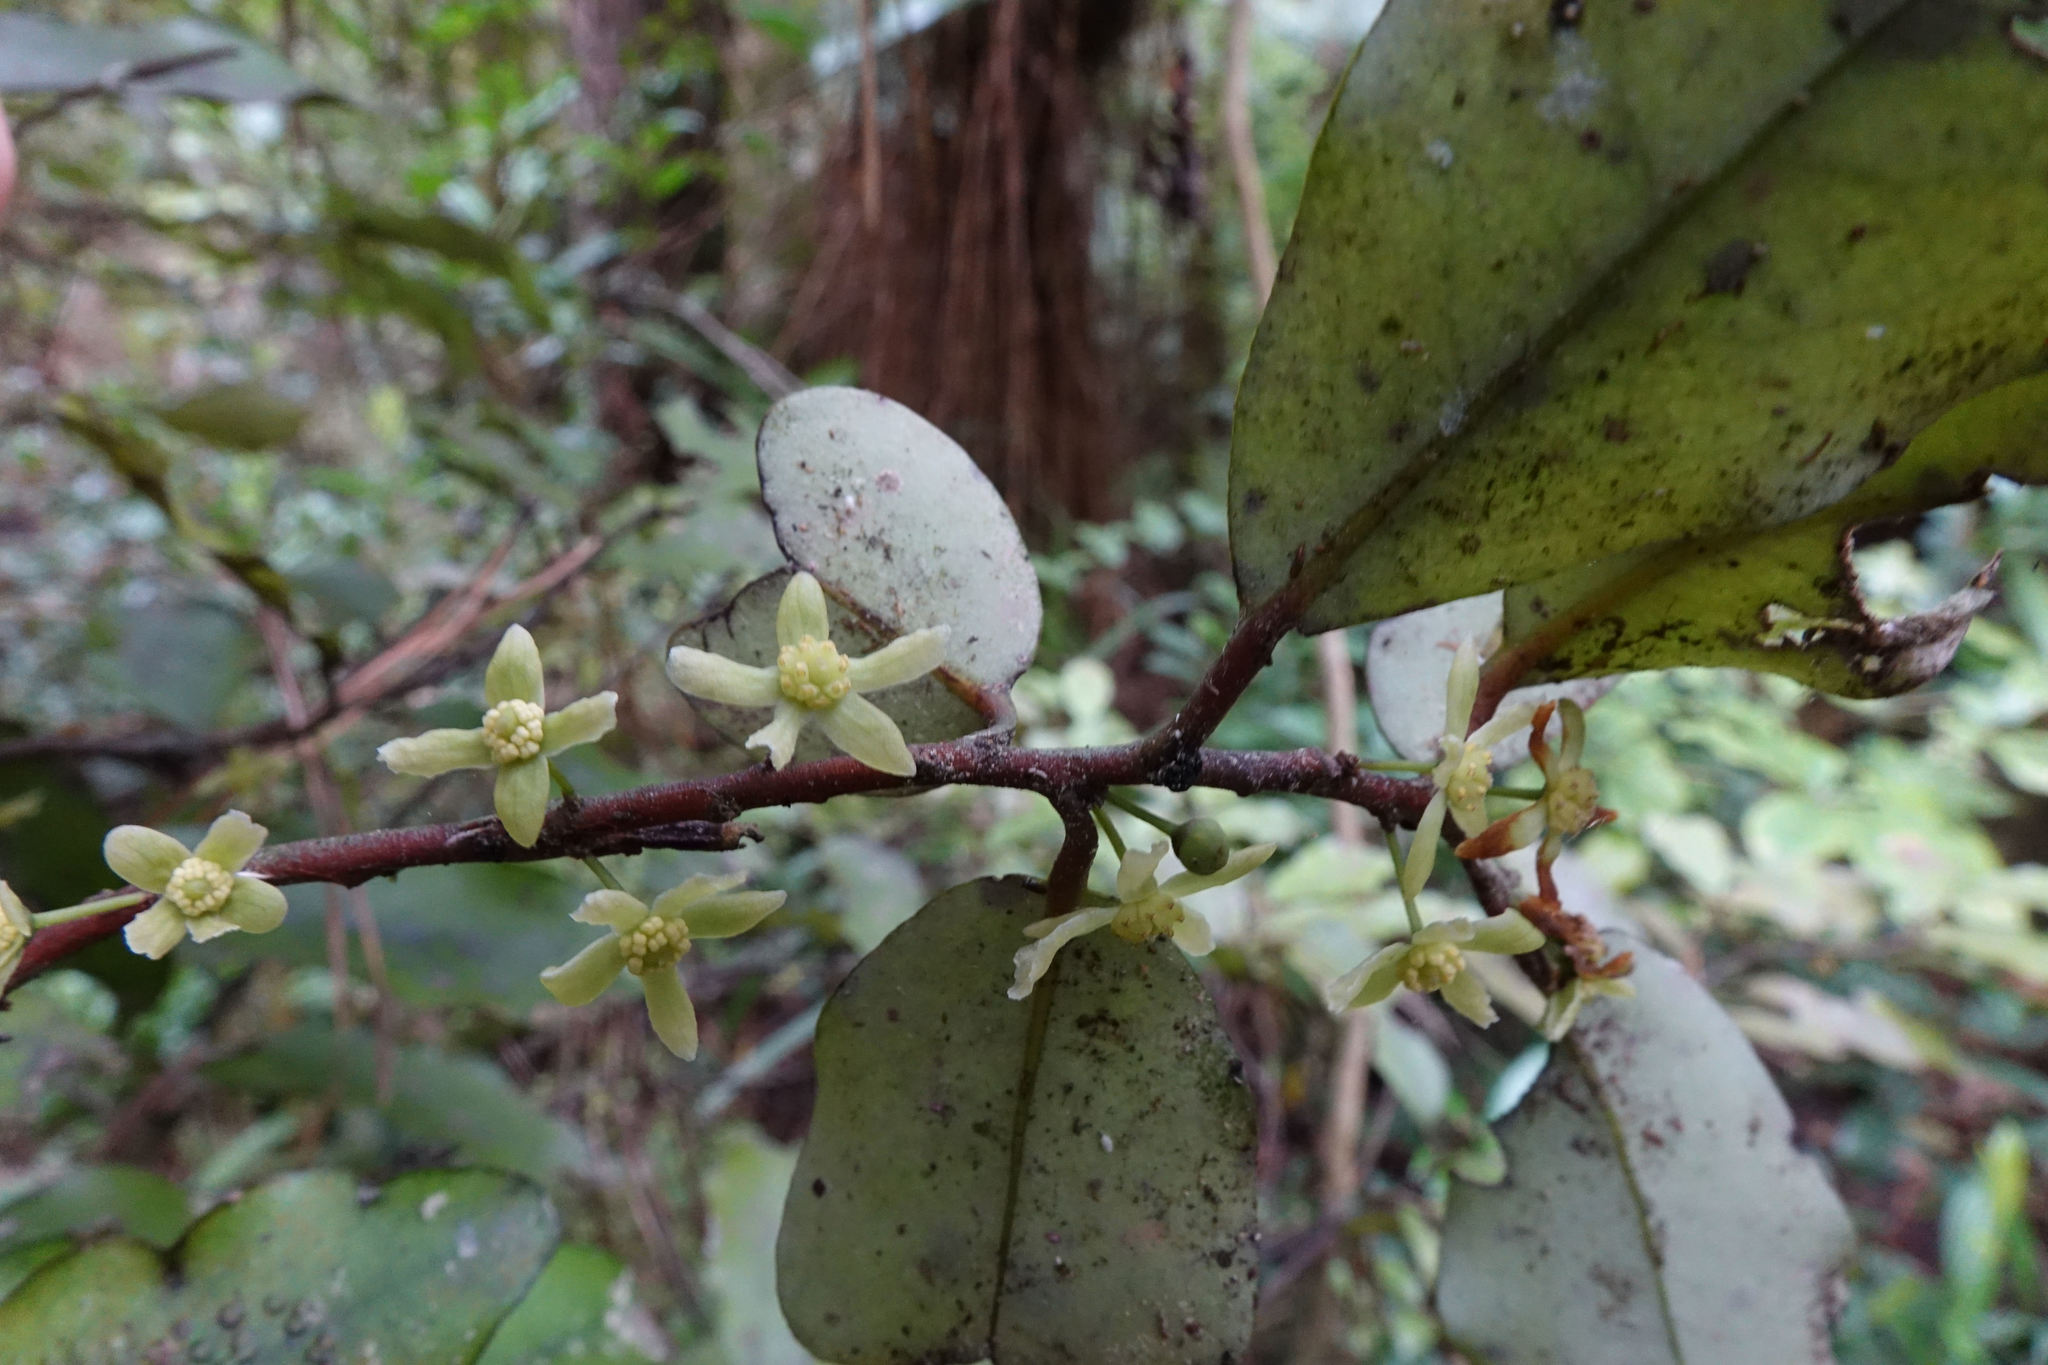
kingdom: Plantae
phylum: Tracheophyta
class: Magnoliopsida
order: Canellales
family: Winteraceae
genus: Pseudowintera
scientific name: Pseudowintera colorata
